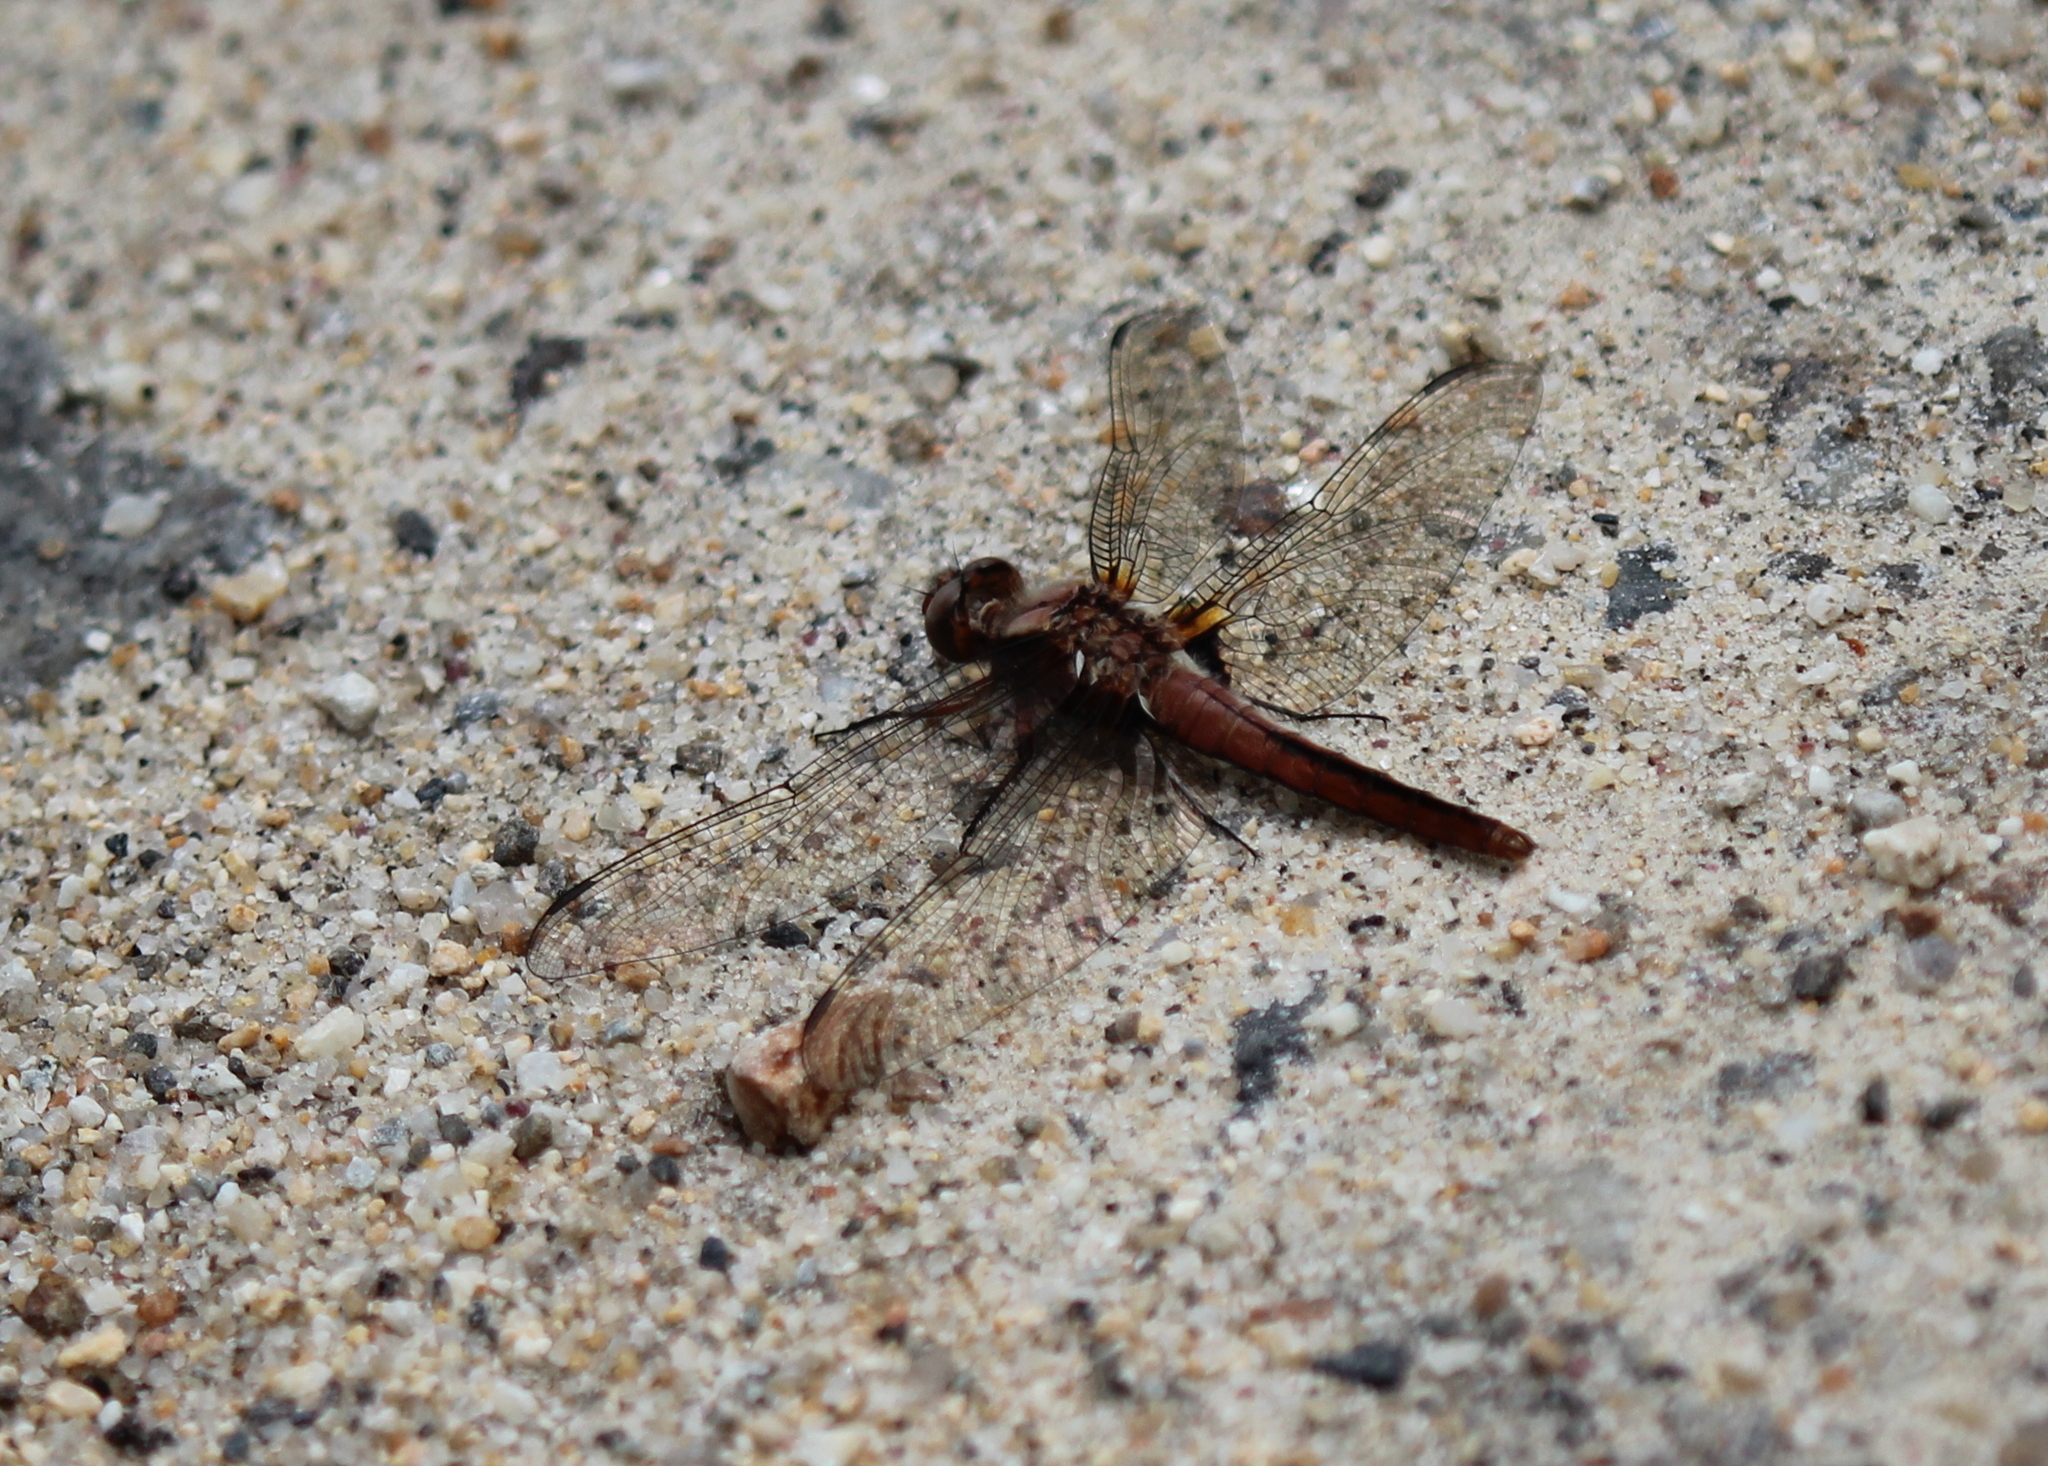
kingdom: Animalia
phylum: Arthropoda
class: Insecta
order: Odonata
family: Libellulidae
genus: Ladona
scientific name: Ladona julia
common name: Chalk-fronted corporal
